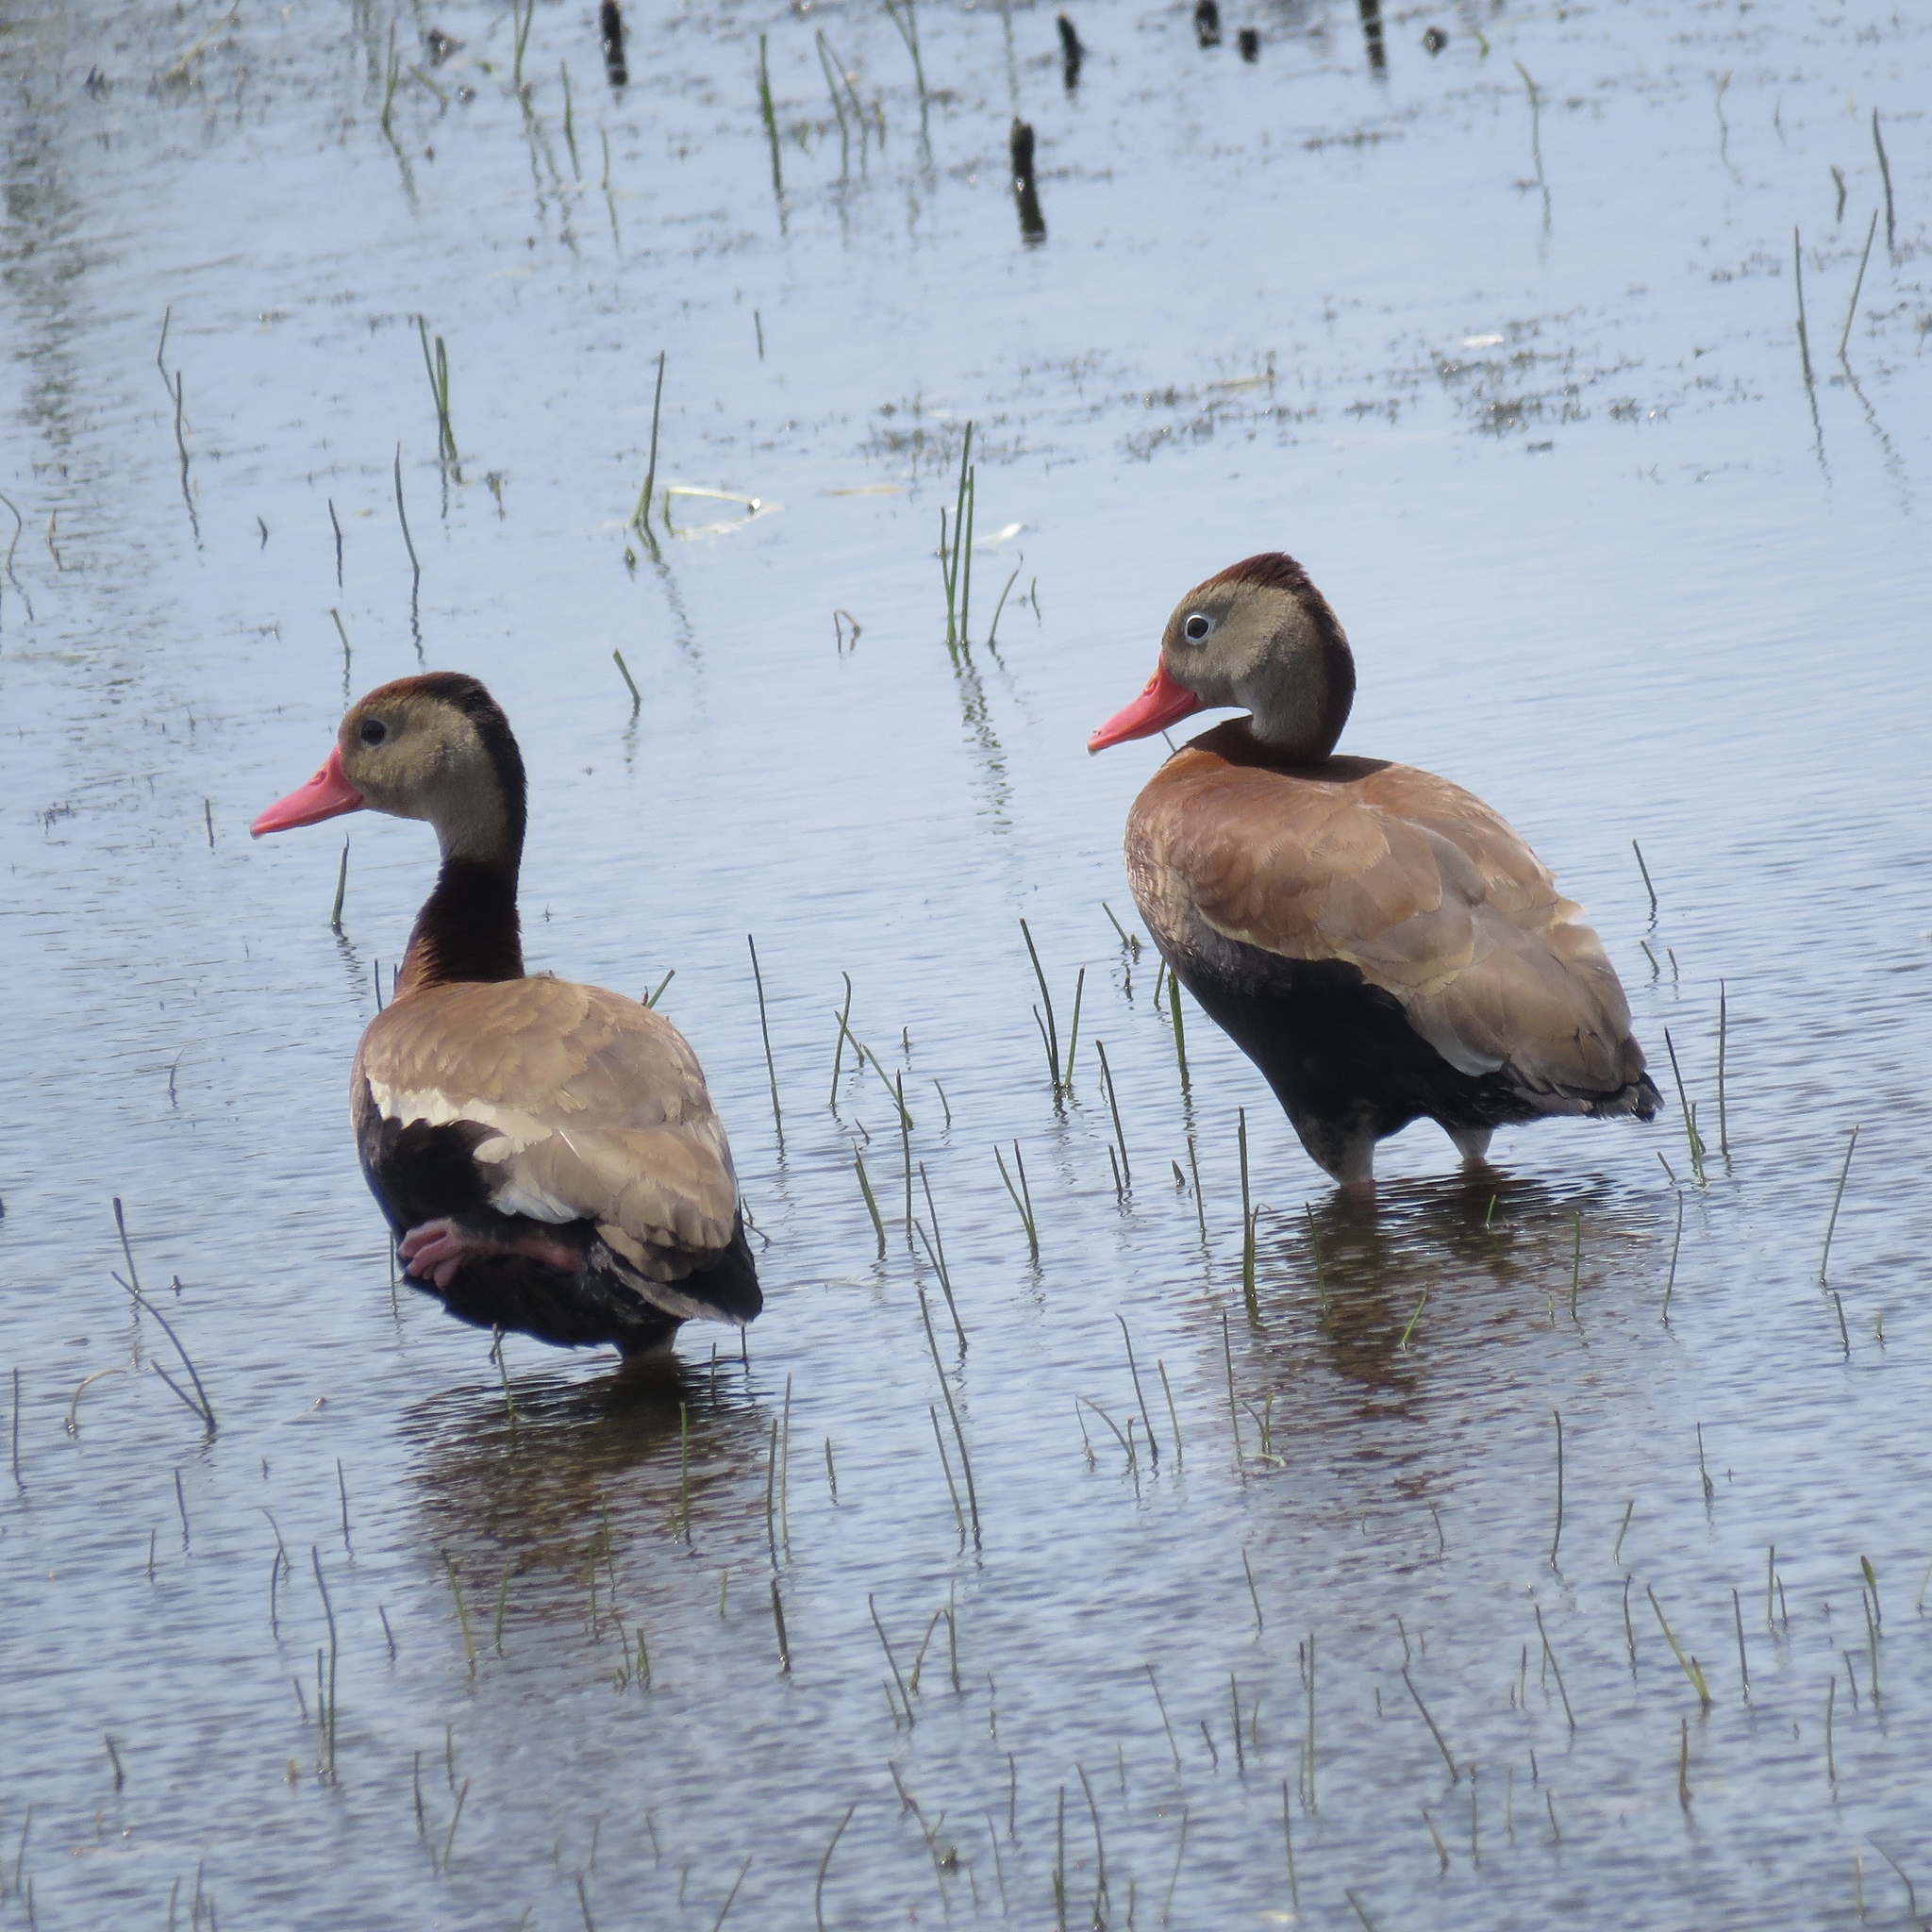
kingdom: Animalia
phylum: Chordata
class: Aves
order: Anseriformes
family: Anatidae
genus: Dendrocygna
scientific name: Dendrocygna autumnalis
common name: Black-bellied whistling duck
